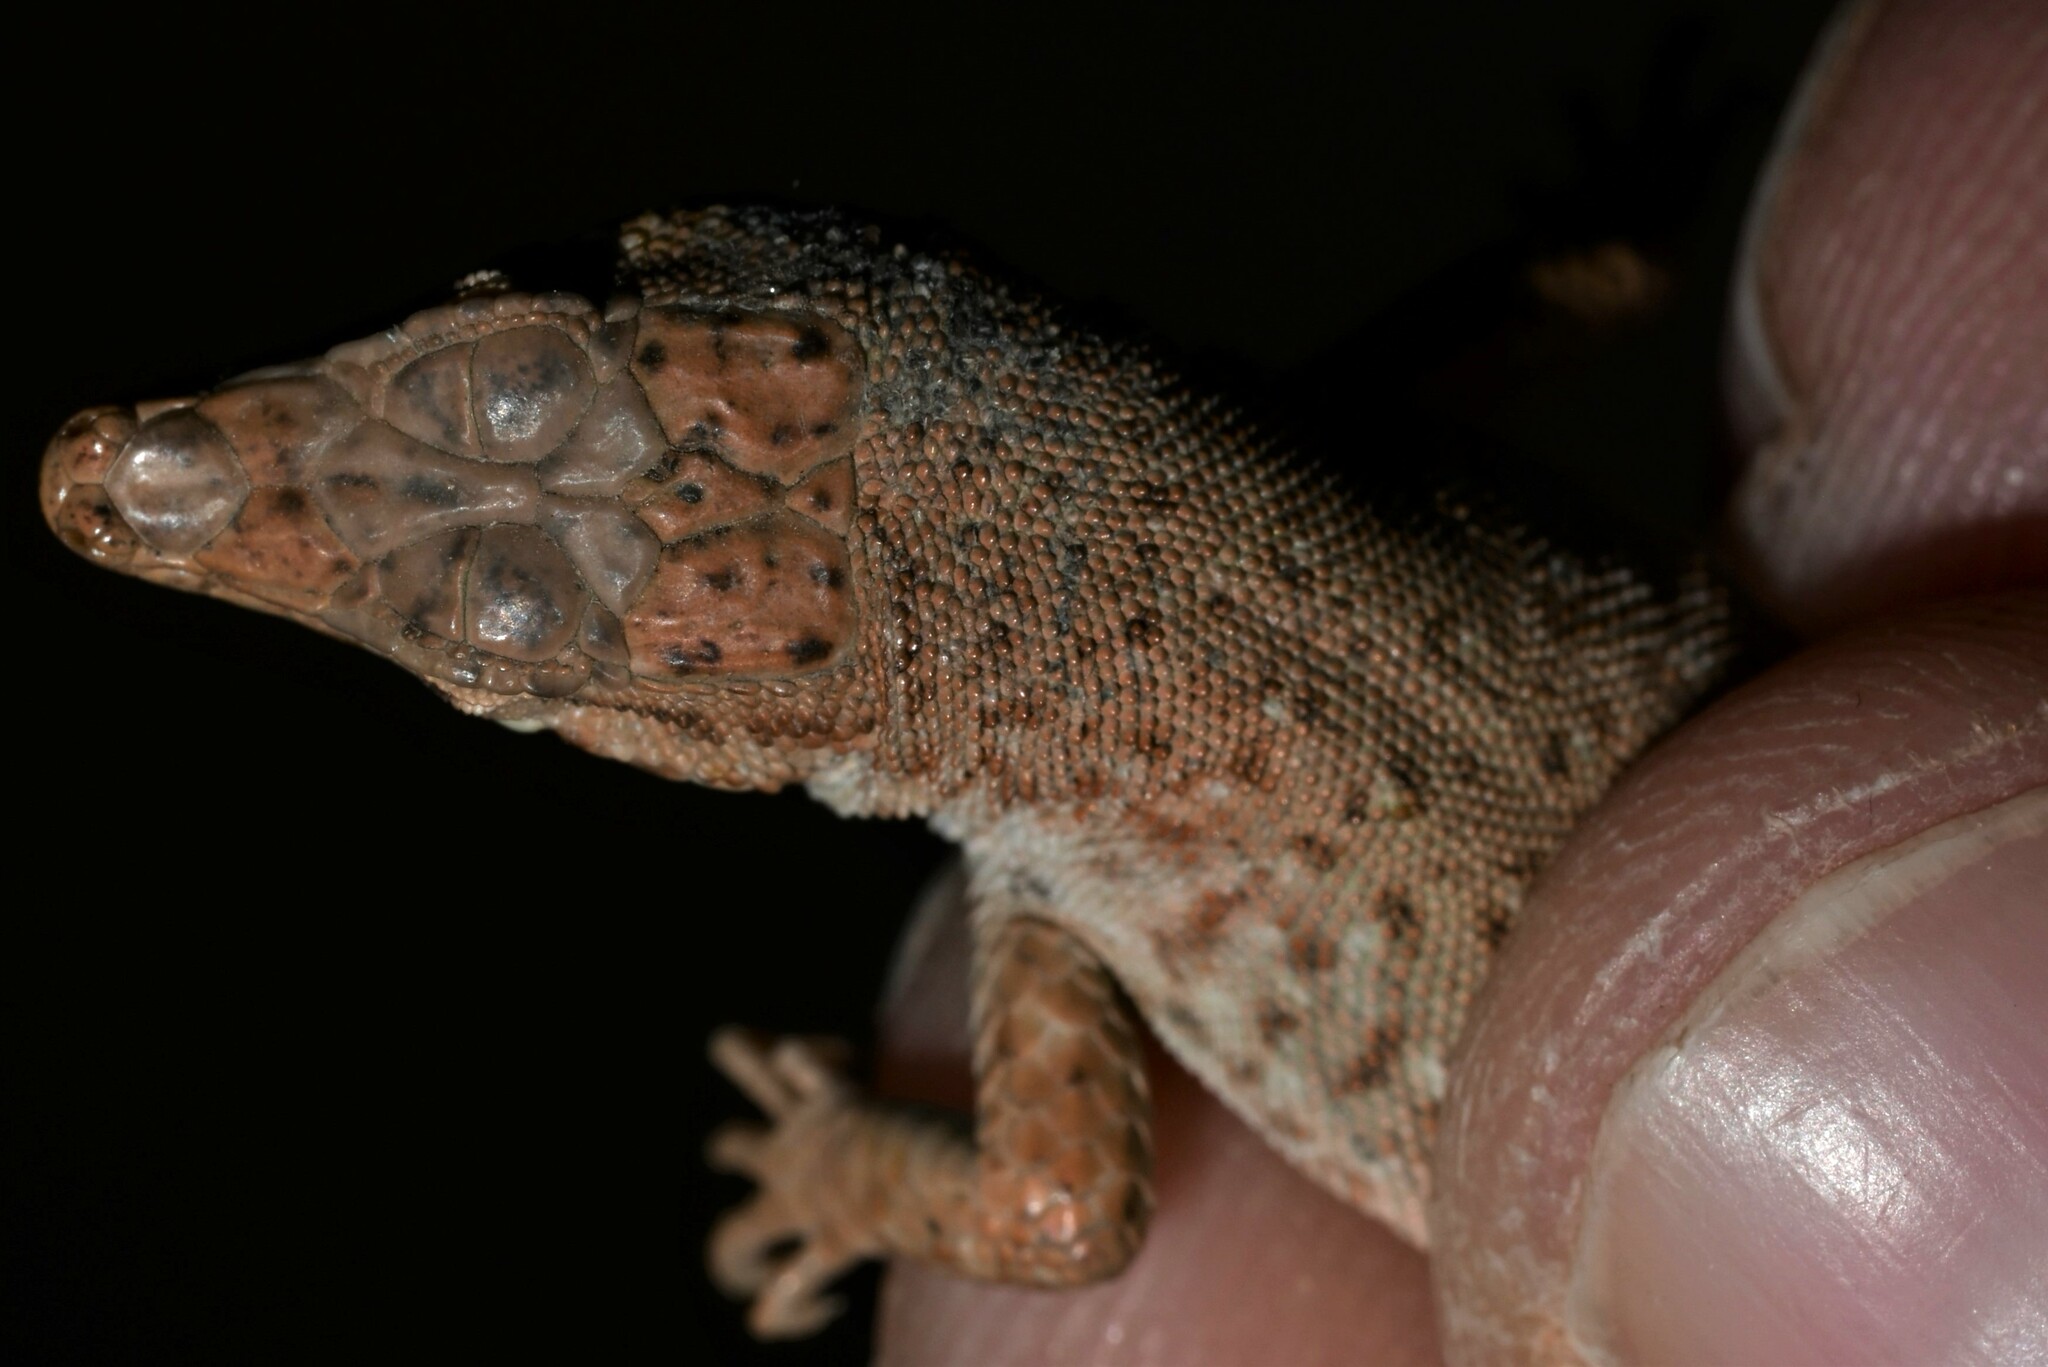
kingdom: Animalia
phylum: Chordata
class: Squamata
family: Lacertidae
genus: Mesalina
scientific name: Mesalina guttulata
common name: Desert lacerta
